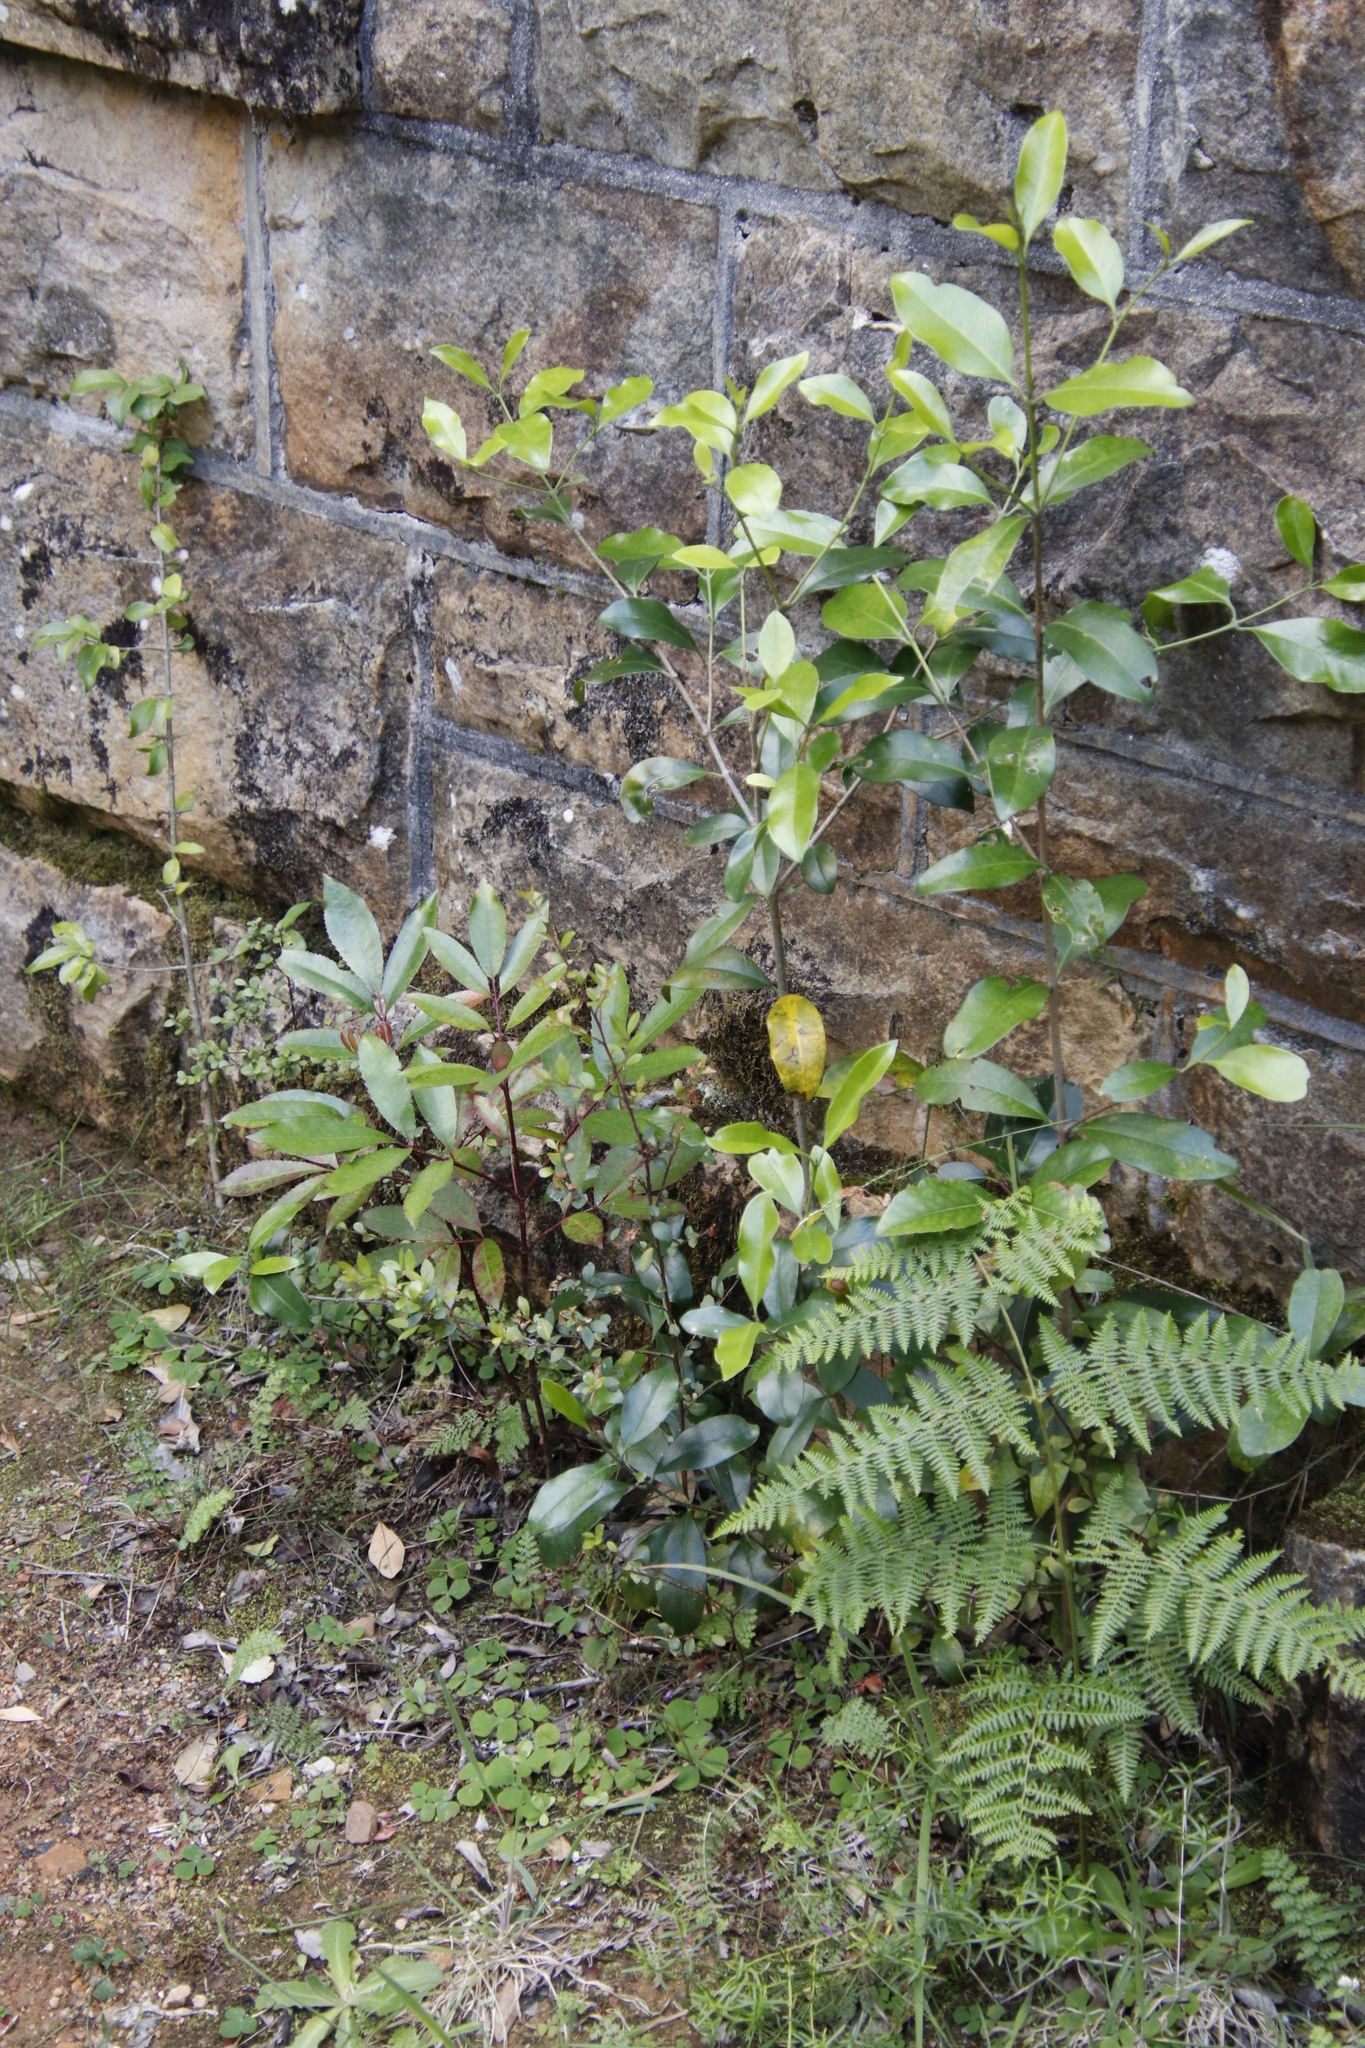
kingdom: Plantae
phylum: Tracheophyta
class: Magnoliopsida
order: Oxalidales
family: Cunoniaceae
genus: Cunonia
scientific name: Cunonia capensis
